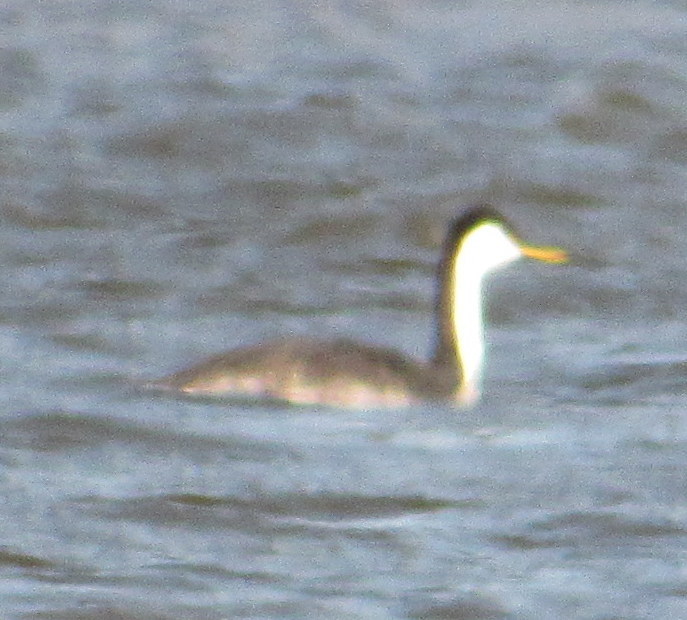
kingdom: Animalia
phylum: Chordata
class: Aves
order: Podicipediformes
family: Podicipedidae
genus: Aechmophorus
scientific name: Aechmophorus occidentalis
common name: Western grebe
